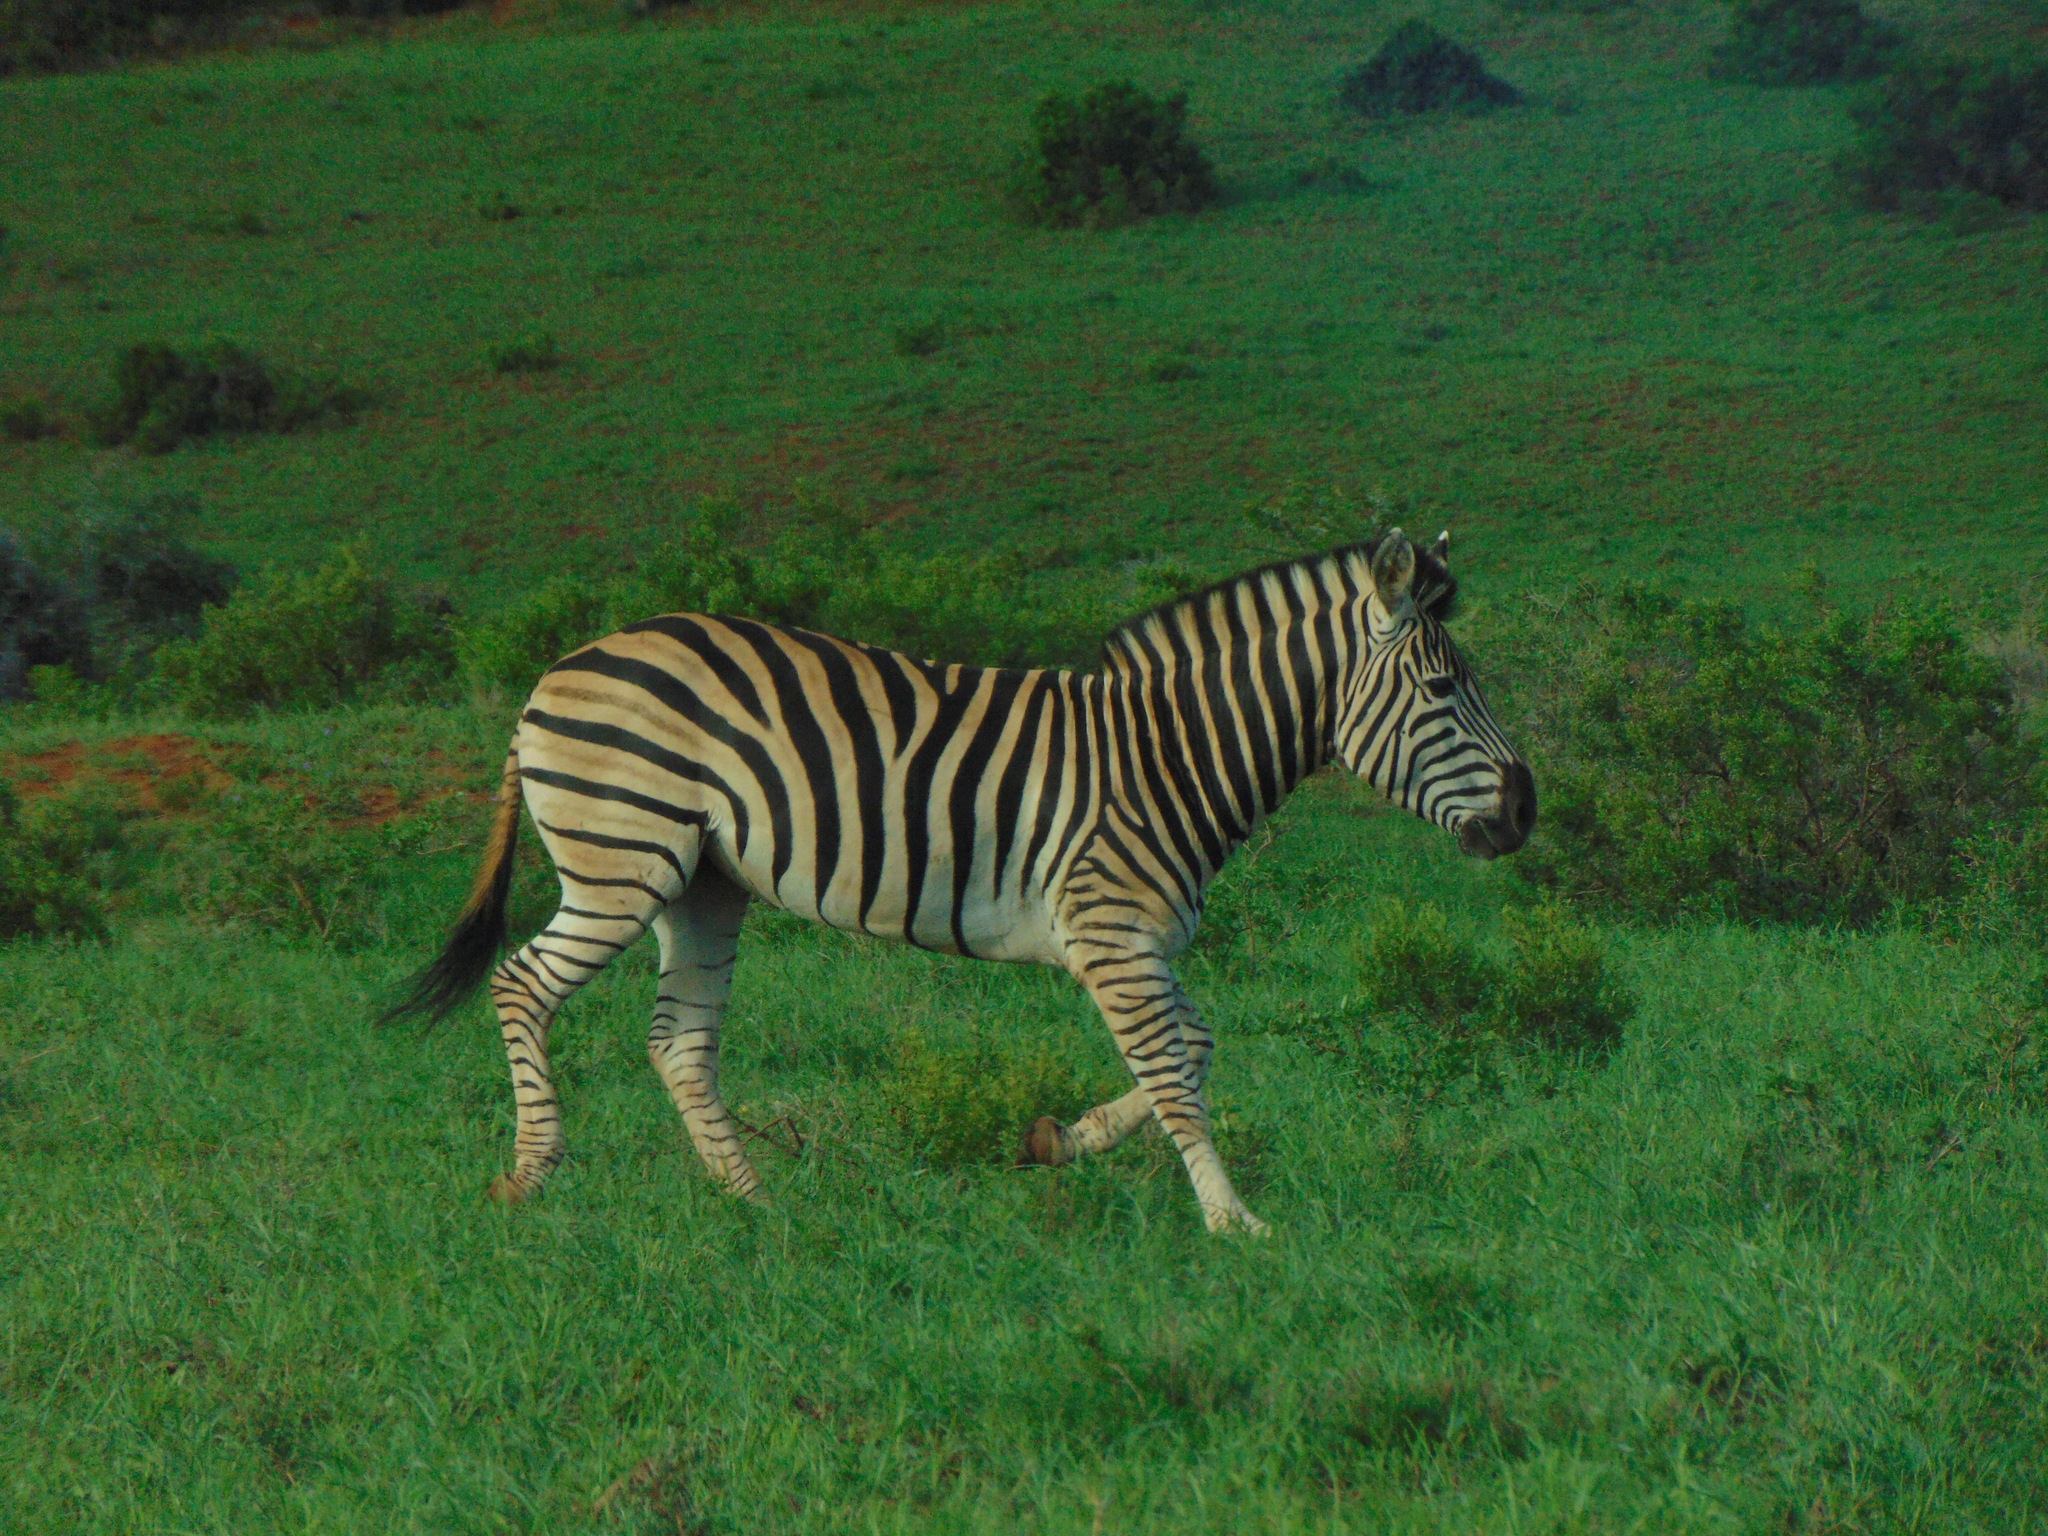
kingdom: Animalia
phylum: Chordata
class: Mammalia
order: Perissodactyla
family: Equidae
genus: Equus
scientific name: Equus quagga
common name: Plains zebra
